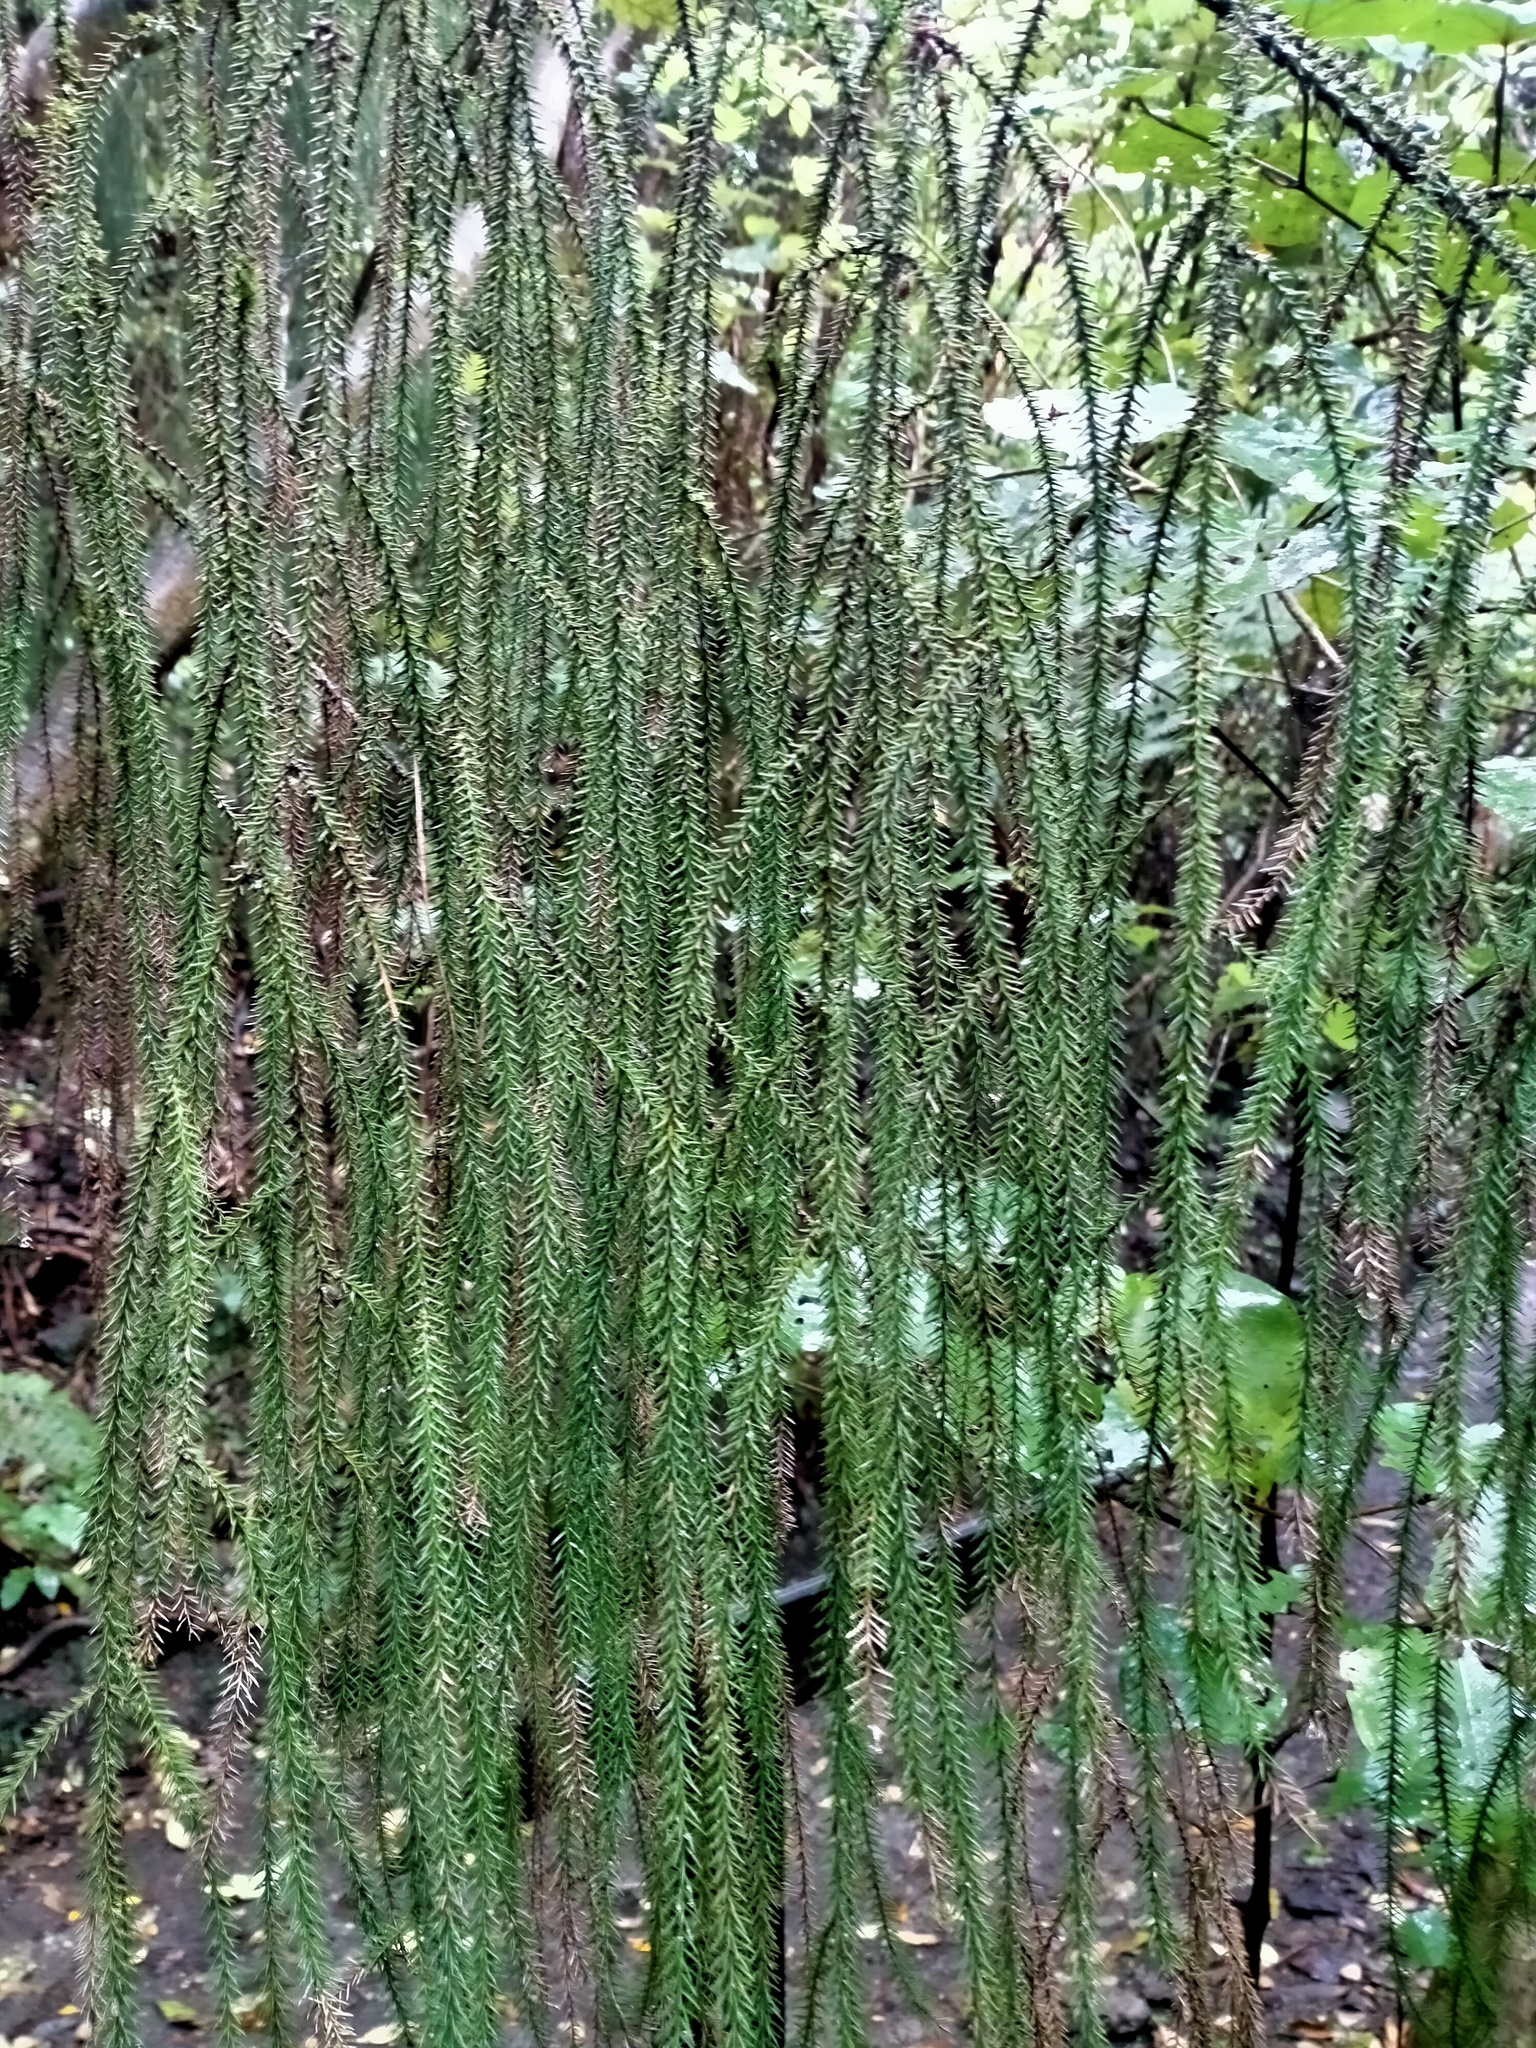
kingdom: Plantae
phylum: Tracheophyta
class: Pinopsida
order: Pinales
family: Podocarpaceae
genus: Dacrydium
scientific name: Dacrydium cupressinum
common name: Red pine
